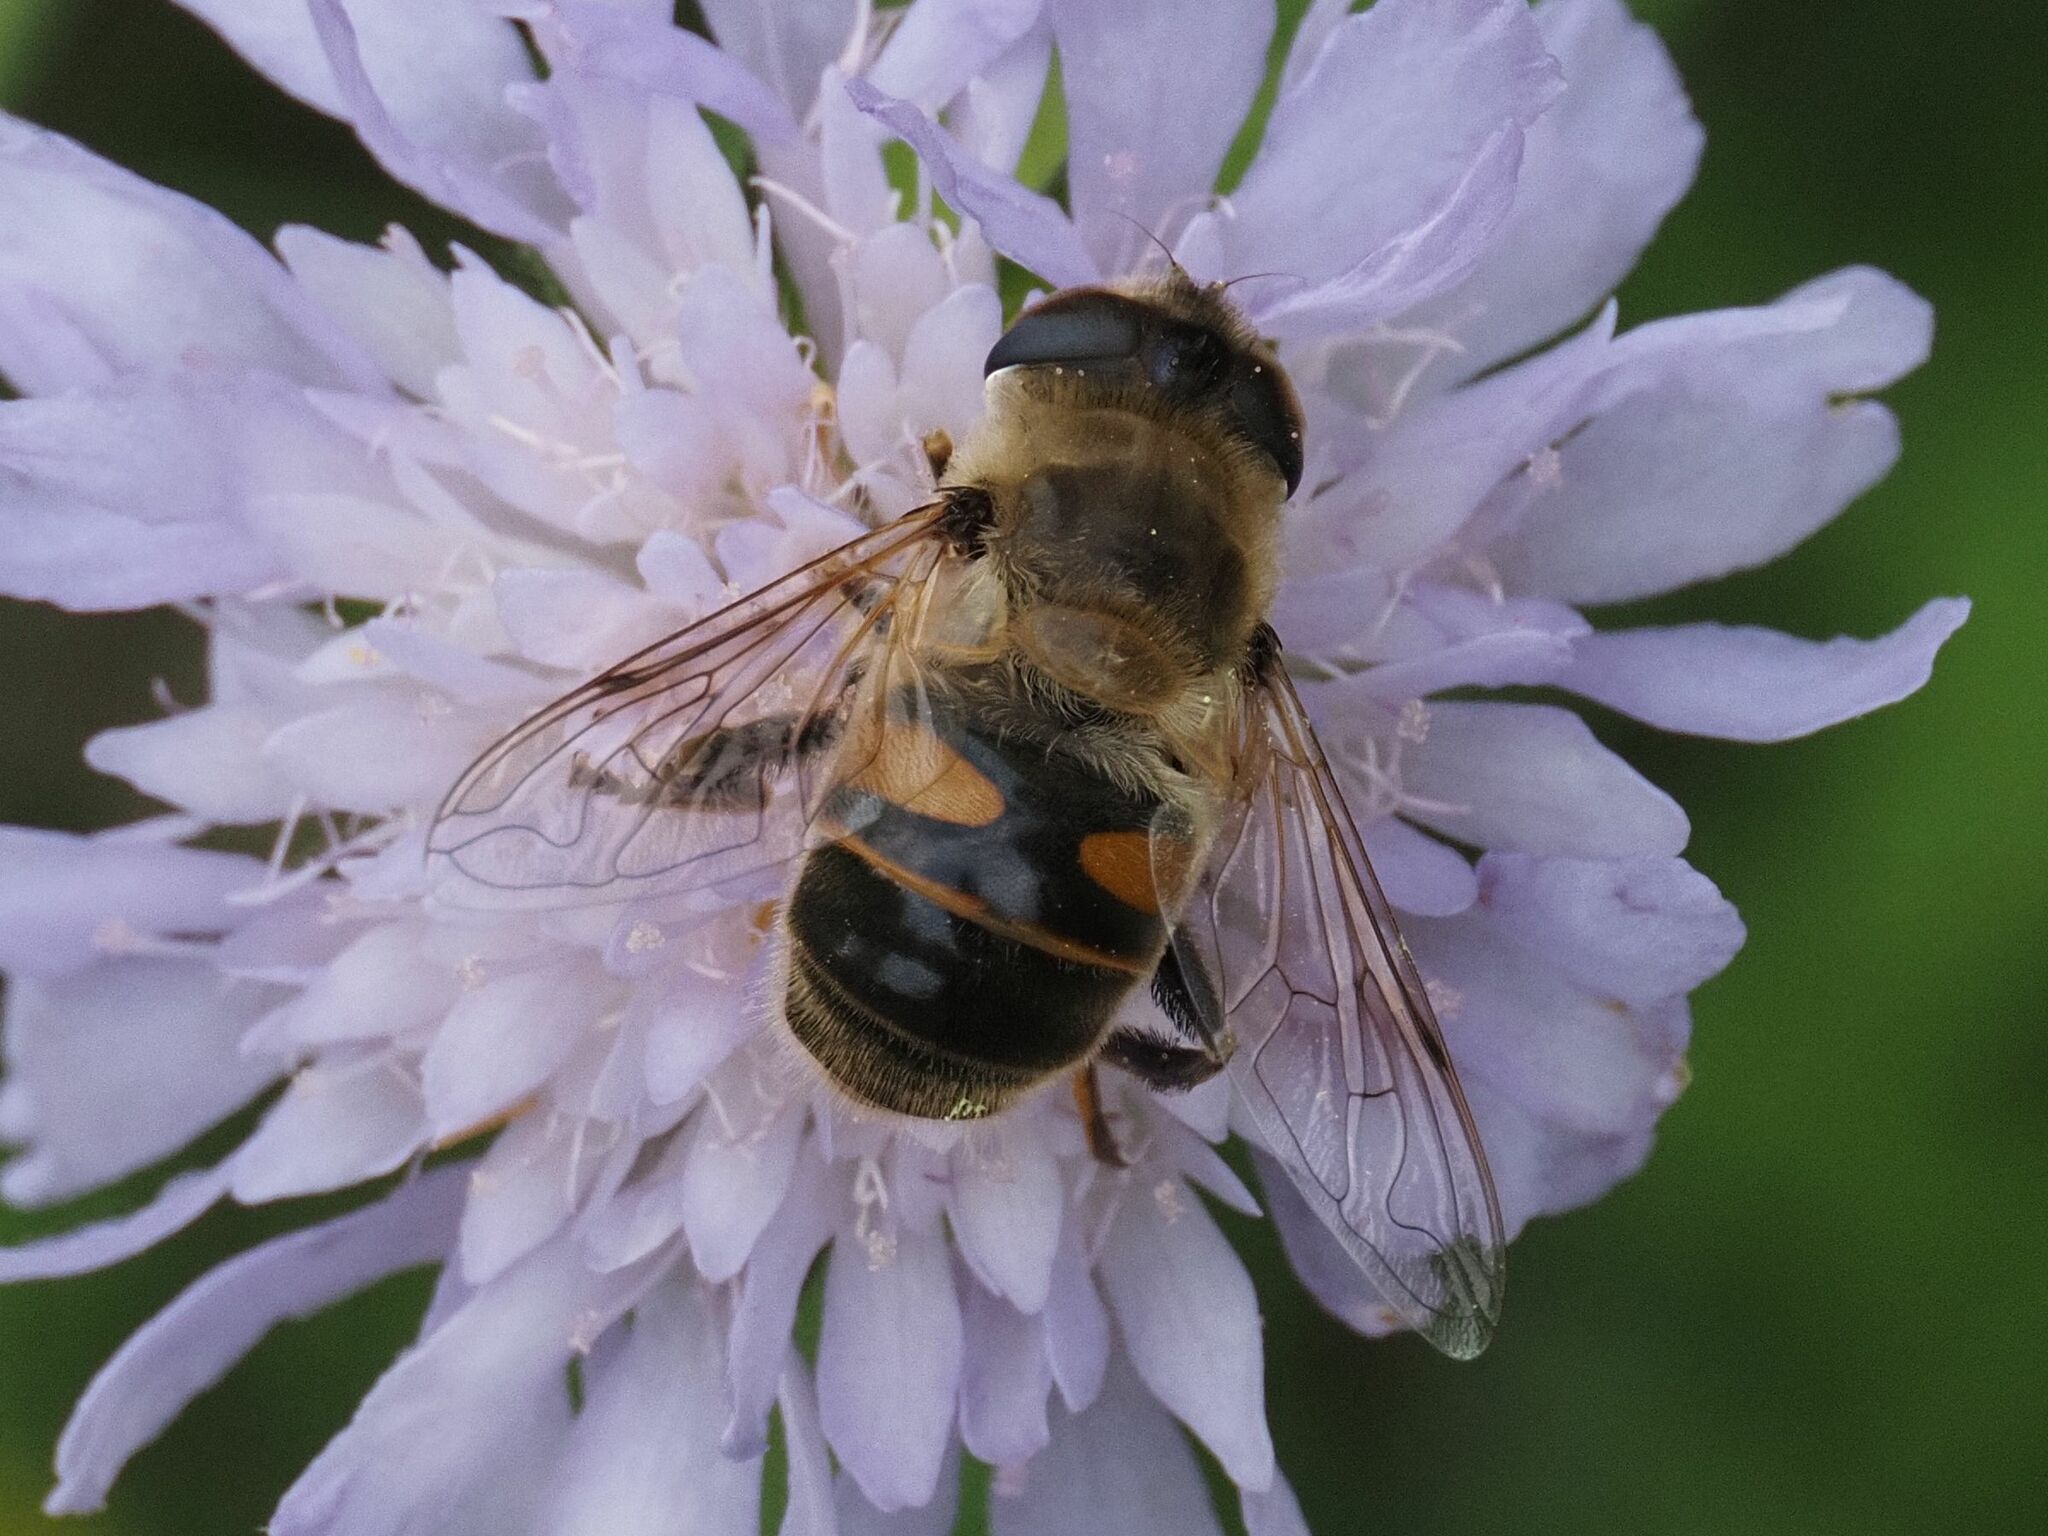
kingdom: Animalia
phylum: Arthropoda
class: Insecta
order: Diptera
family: Syrphidae
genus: Eristalis
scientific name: Eristalis tenax
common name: Drone fly
